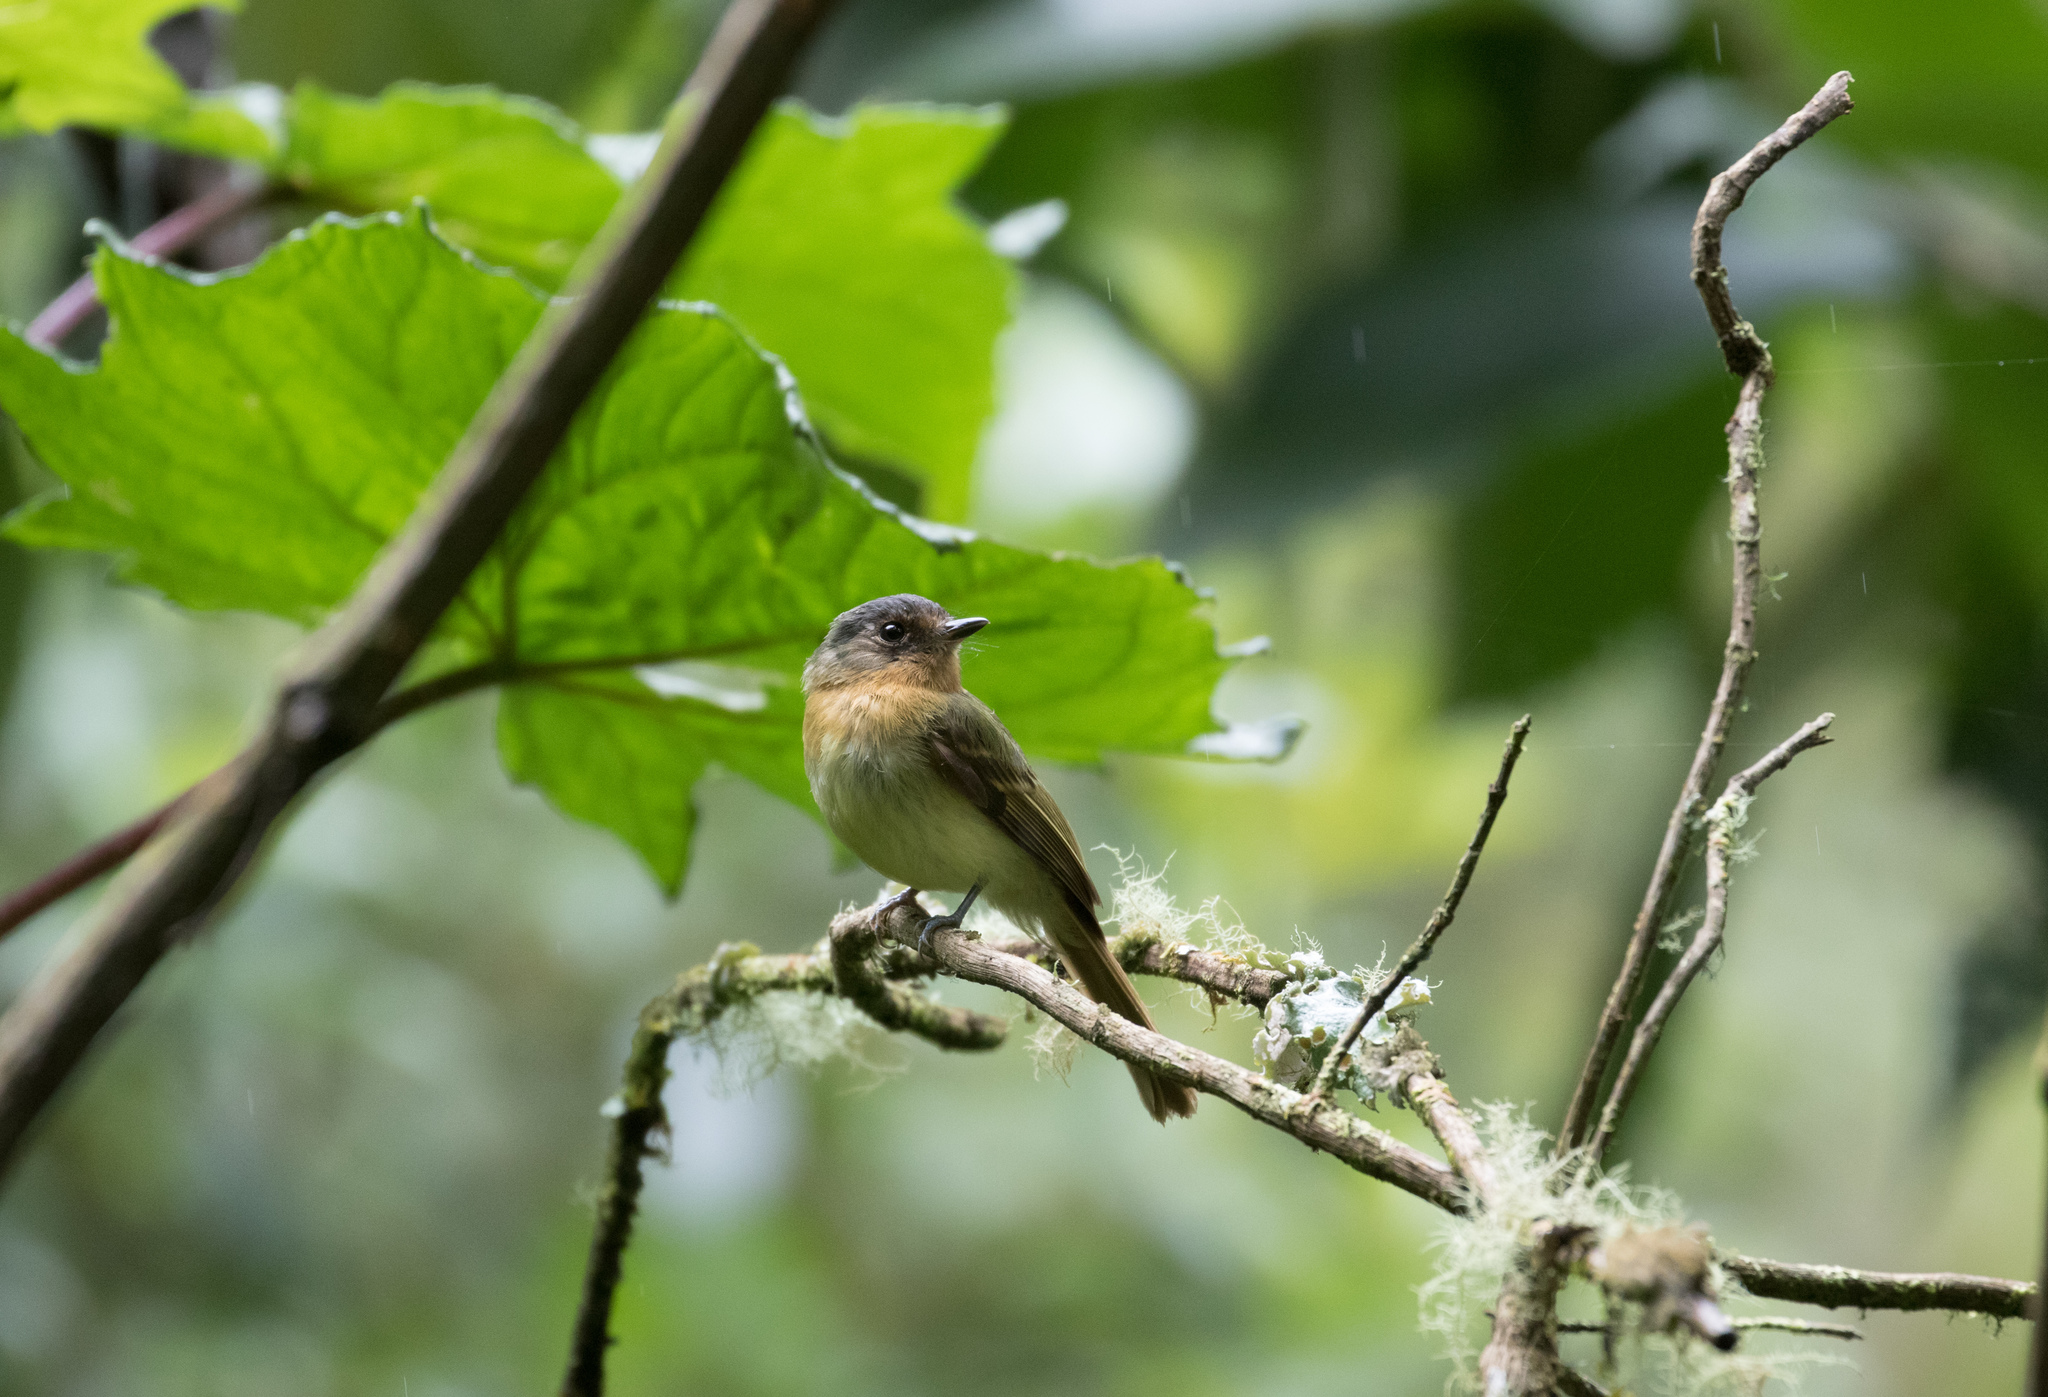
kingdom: Animalia
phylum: Chordata
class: Aves
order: Passeriformes
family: Tyrannidae
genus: Leptopogon
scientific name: Leptopogon rufipectus
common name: Rufous-breasted flycatcher
